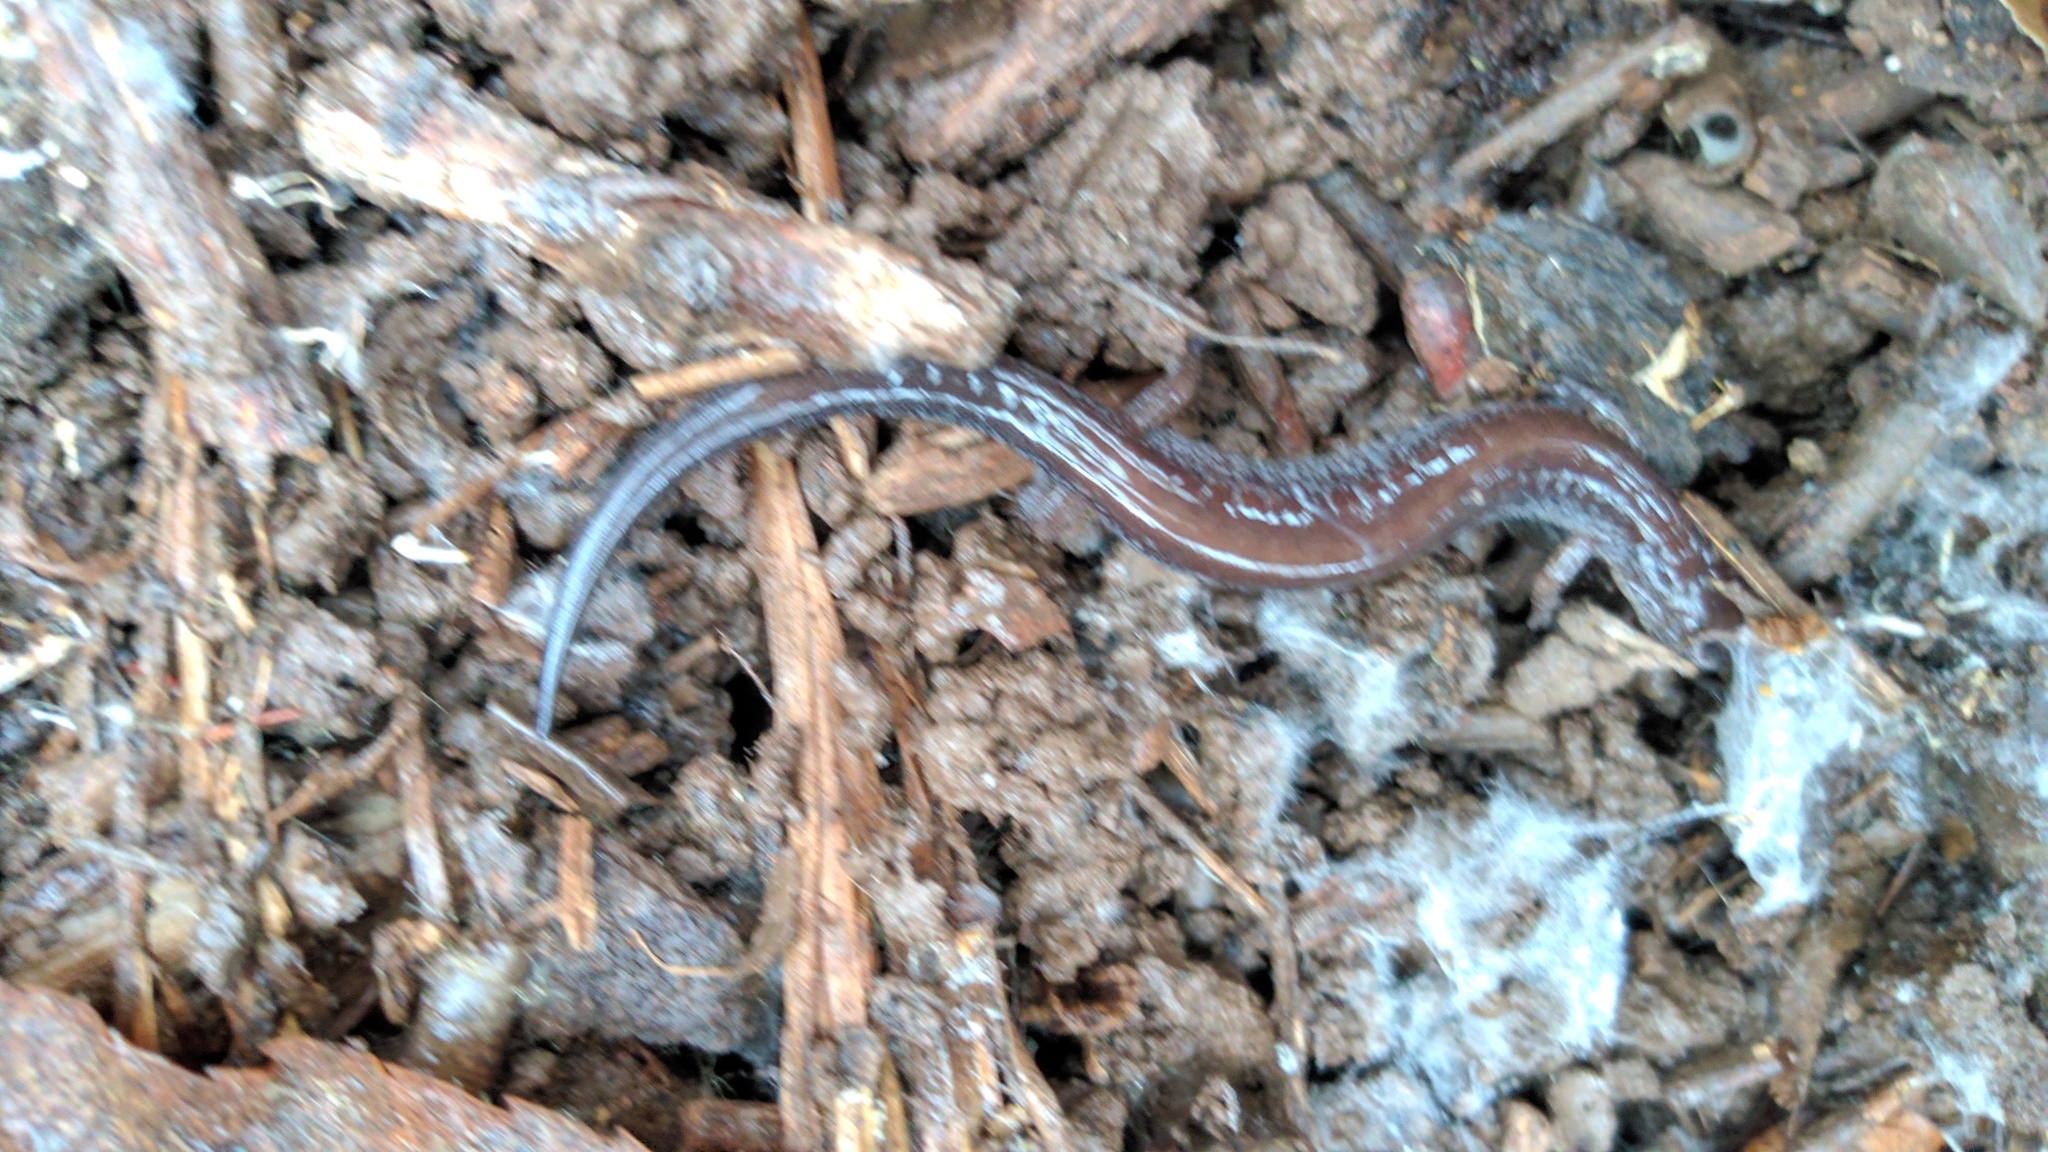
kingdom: Animalia
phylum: Chordata
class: Amphibia
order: Caudata
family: Plethodontidae
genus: Plethodon
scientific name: Plethodon cinereus
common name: Redback salamander
